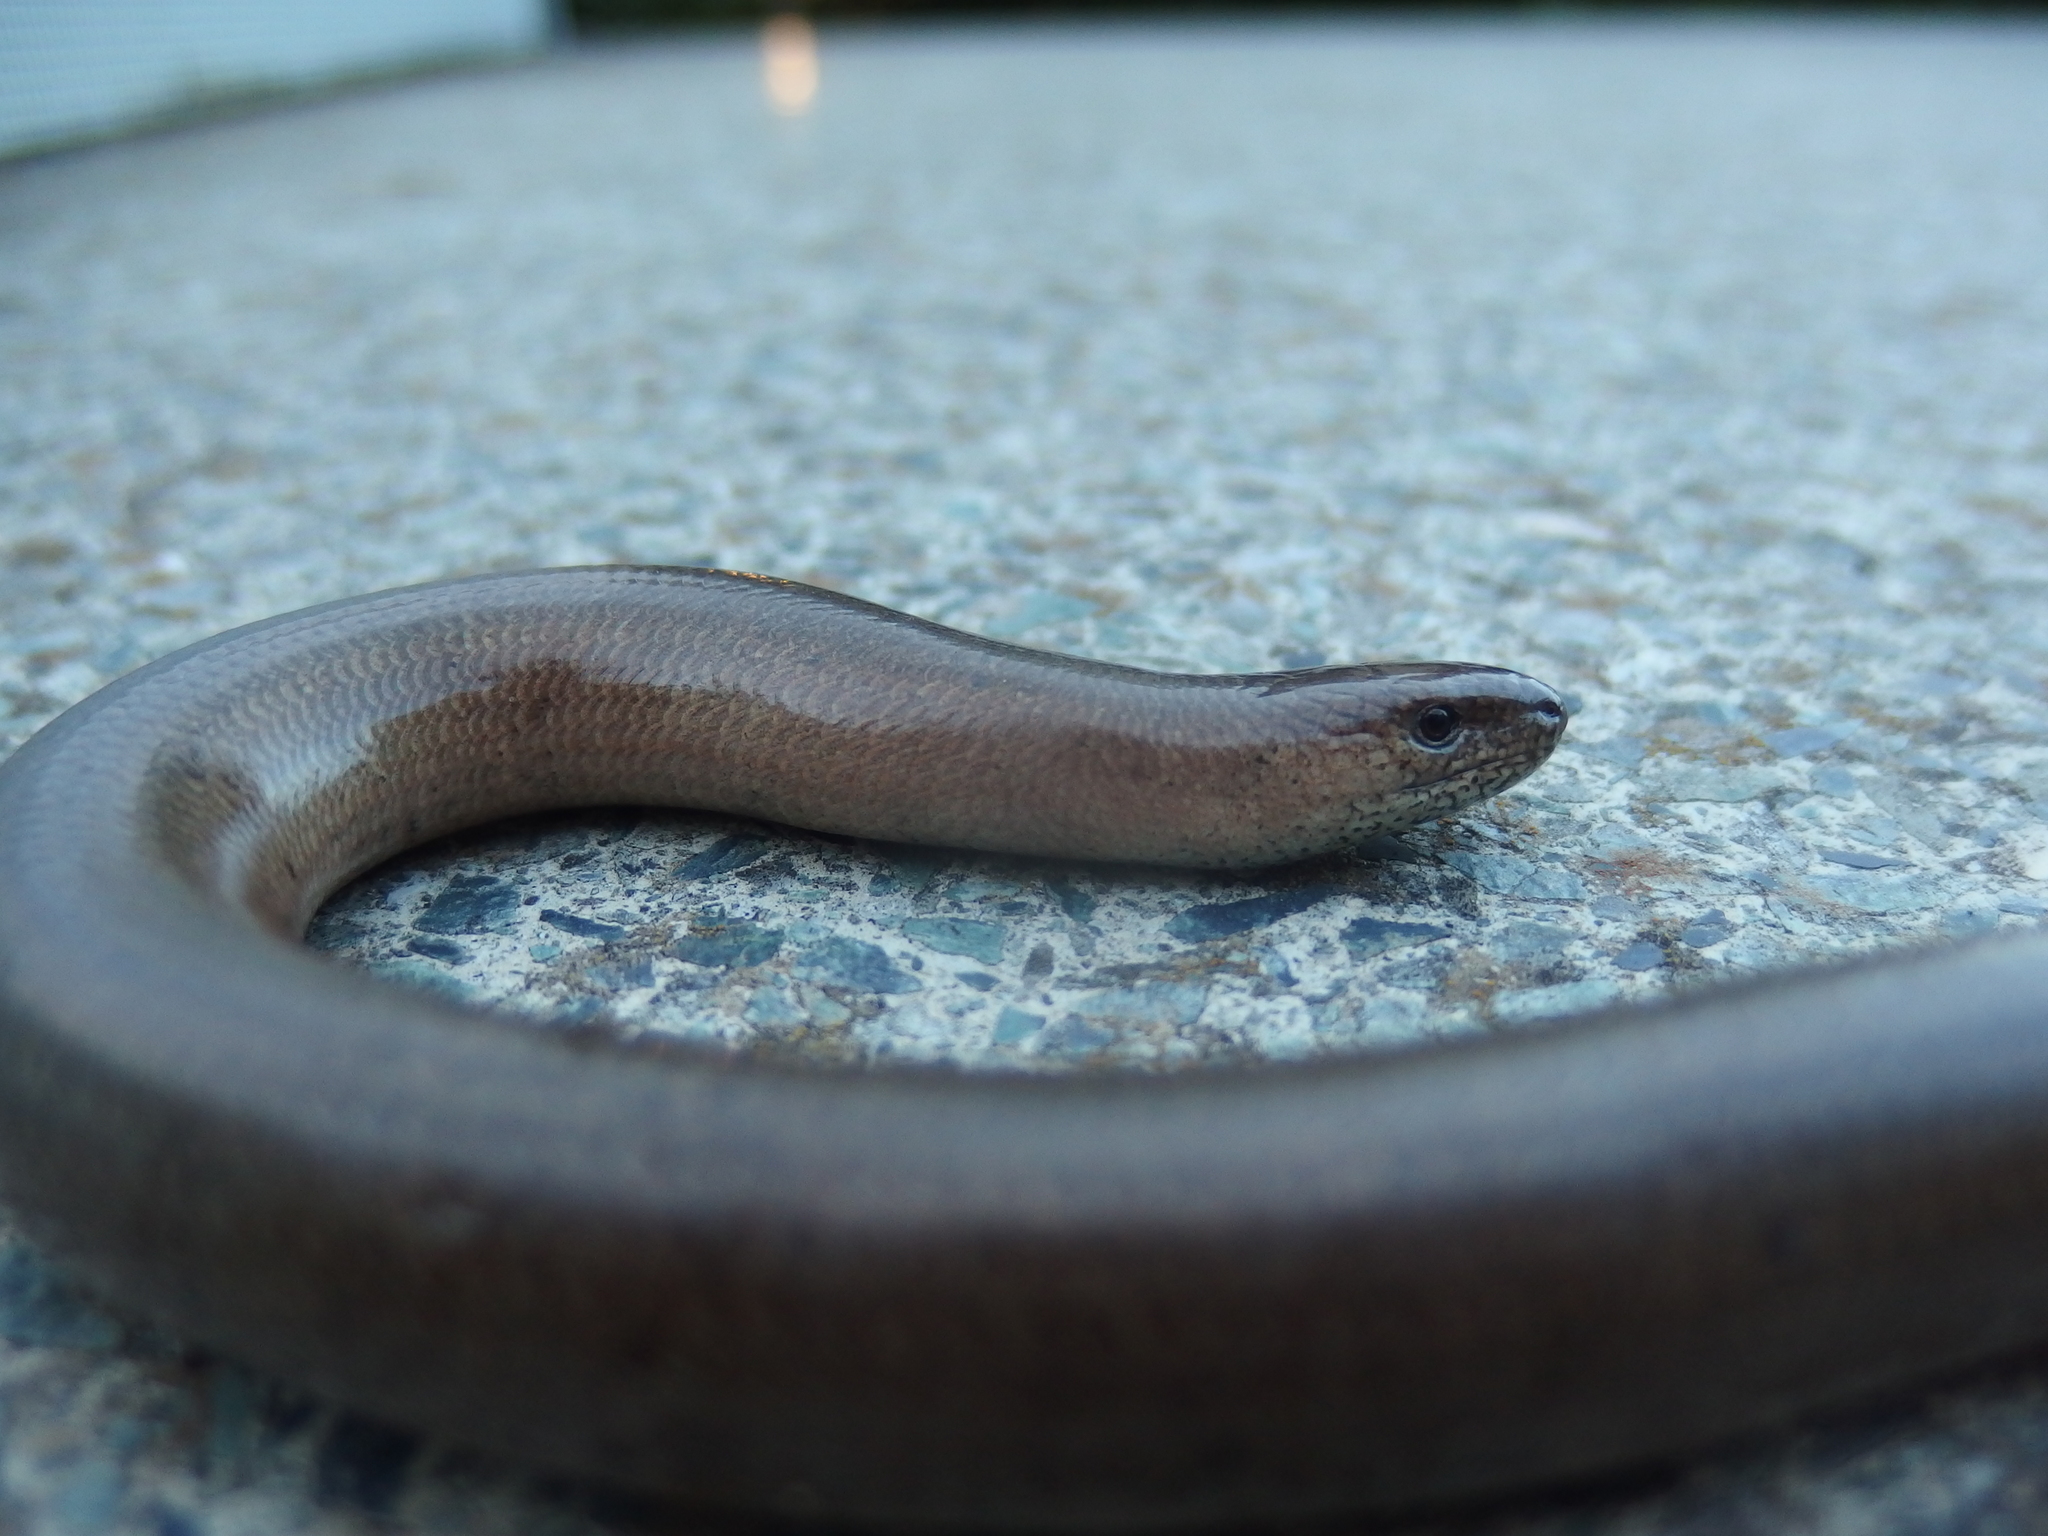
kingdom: Animalia
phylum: Chordata
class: Squamata
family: Anguidae
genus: Anguis
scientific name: Anguis fragilis
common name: Slow worm
